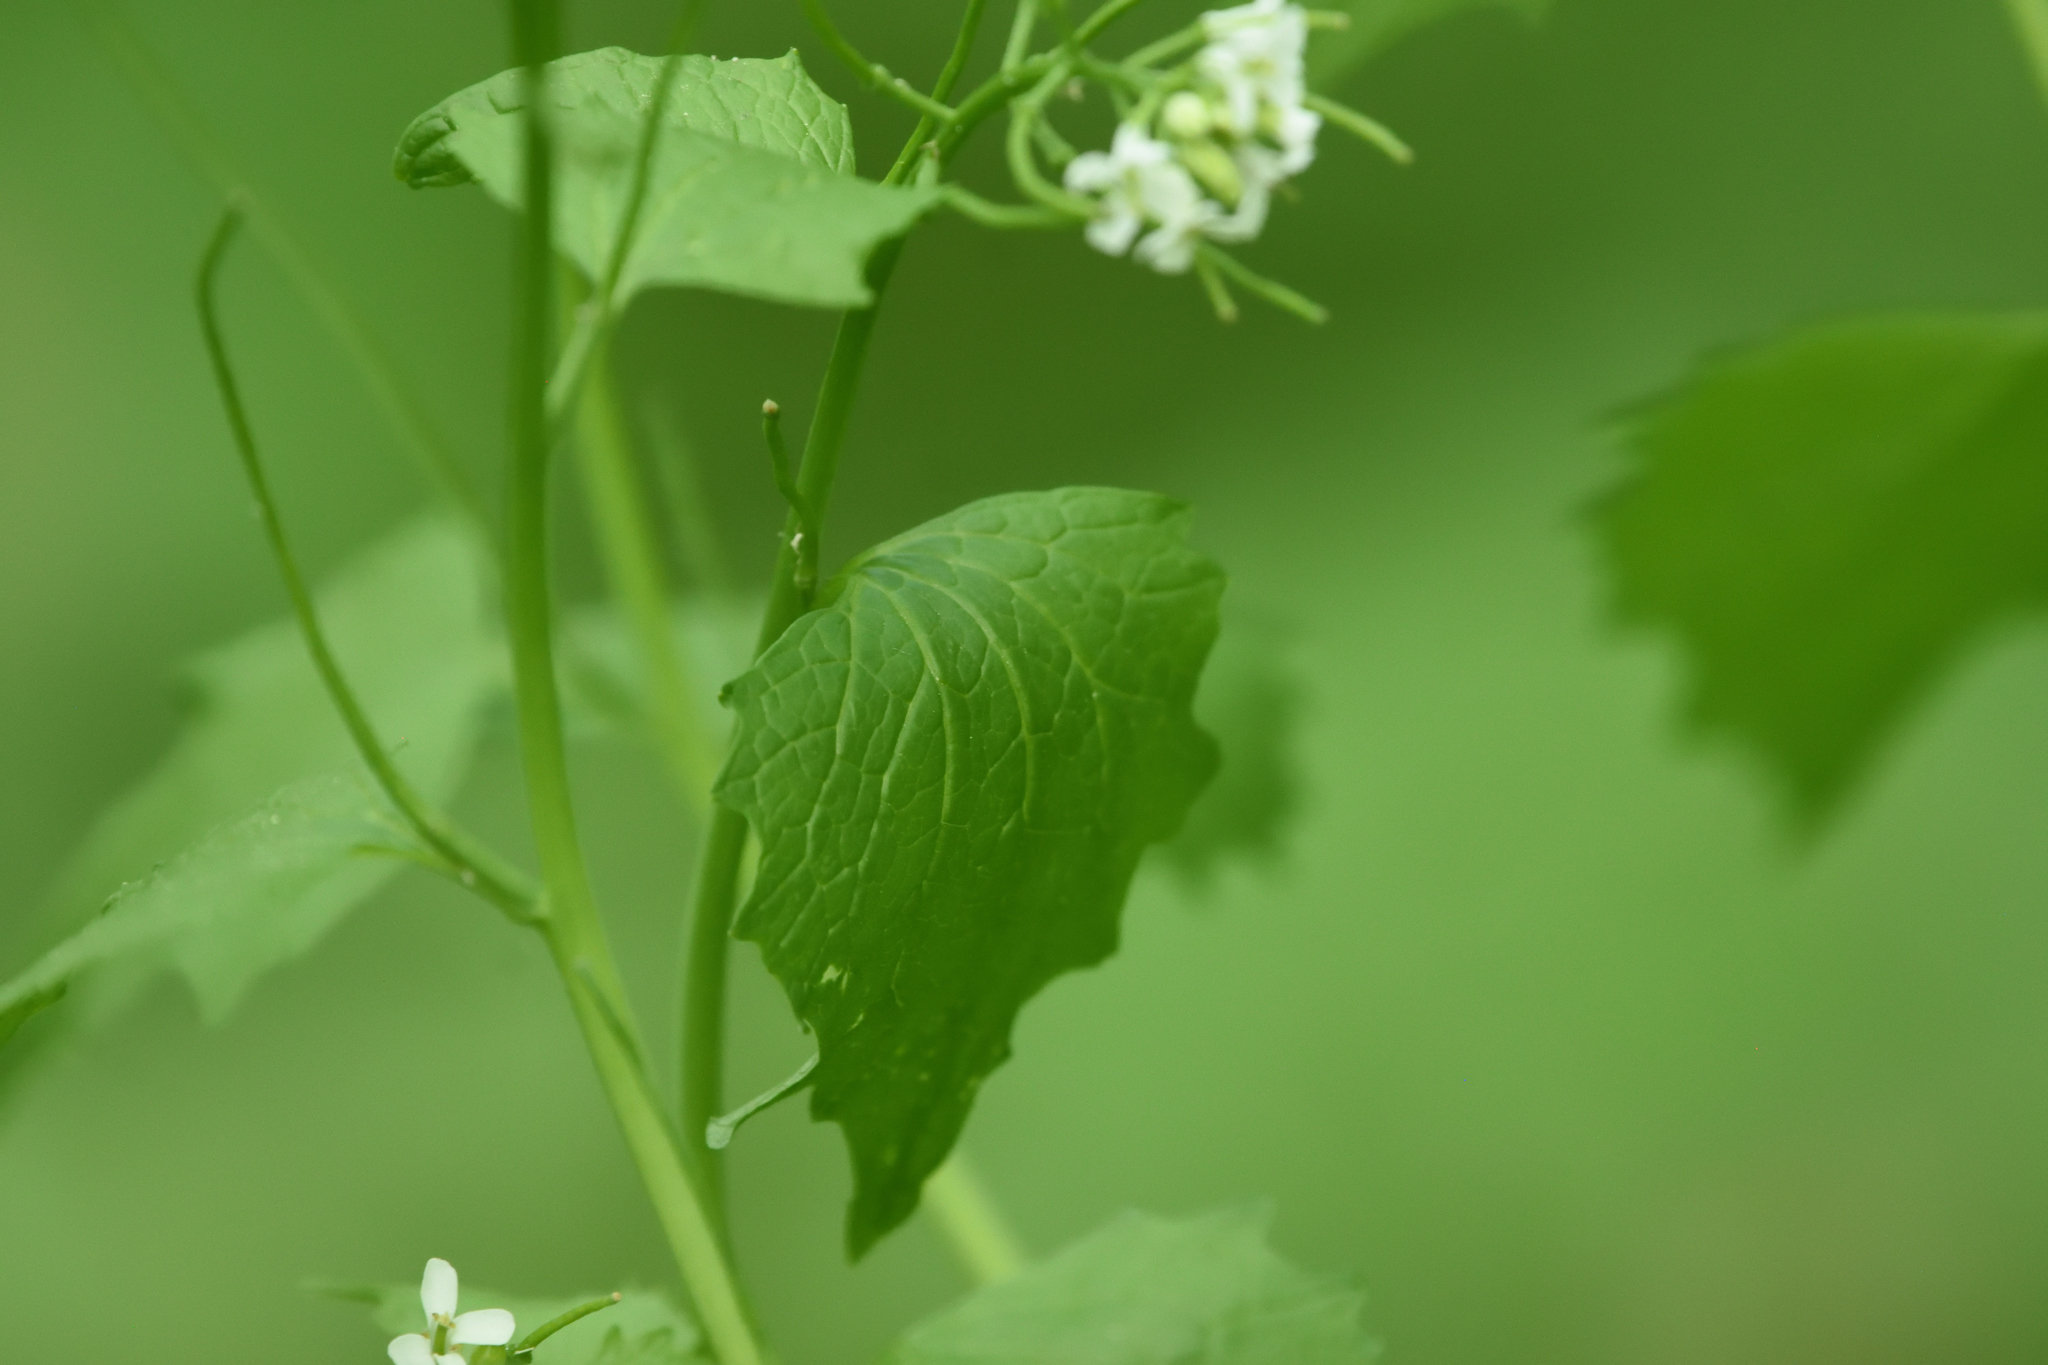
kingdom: Plantae
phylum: Tracheophyta
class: Magnoliopsida
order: Brassicales
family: Brassicaceae
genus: Alliaria
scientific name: Alliaria petiolata
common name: Garlic mustard
